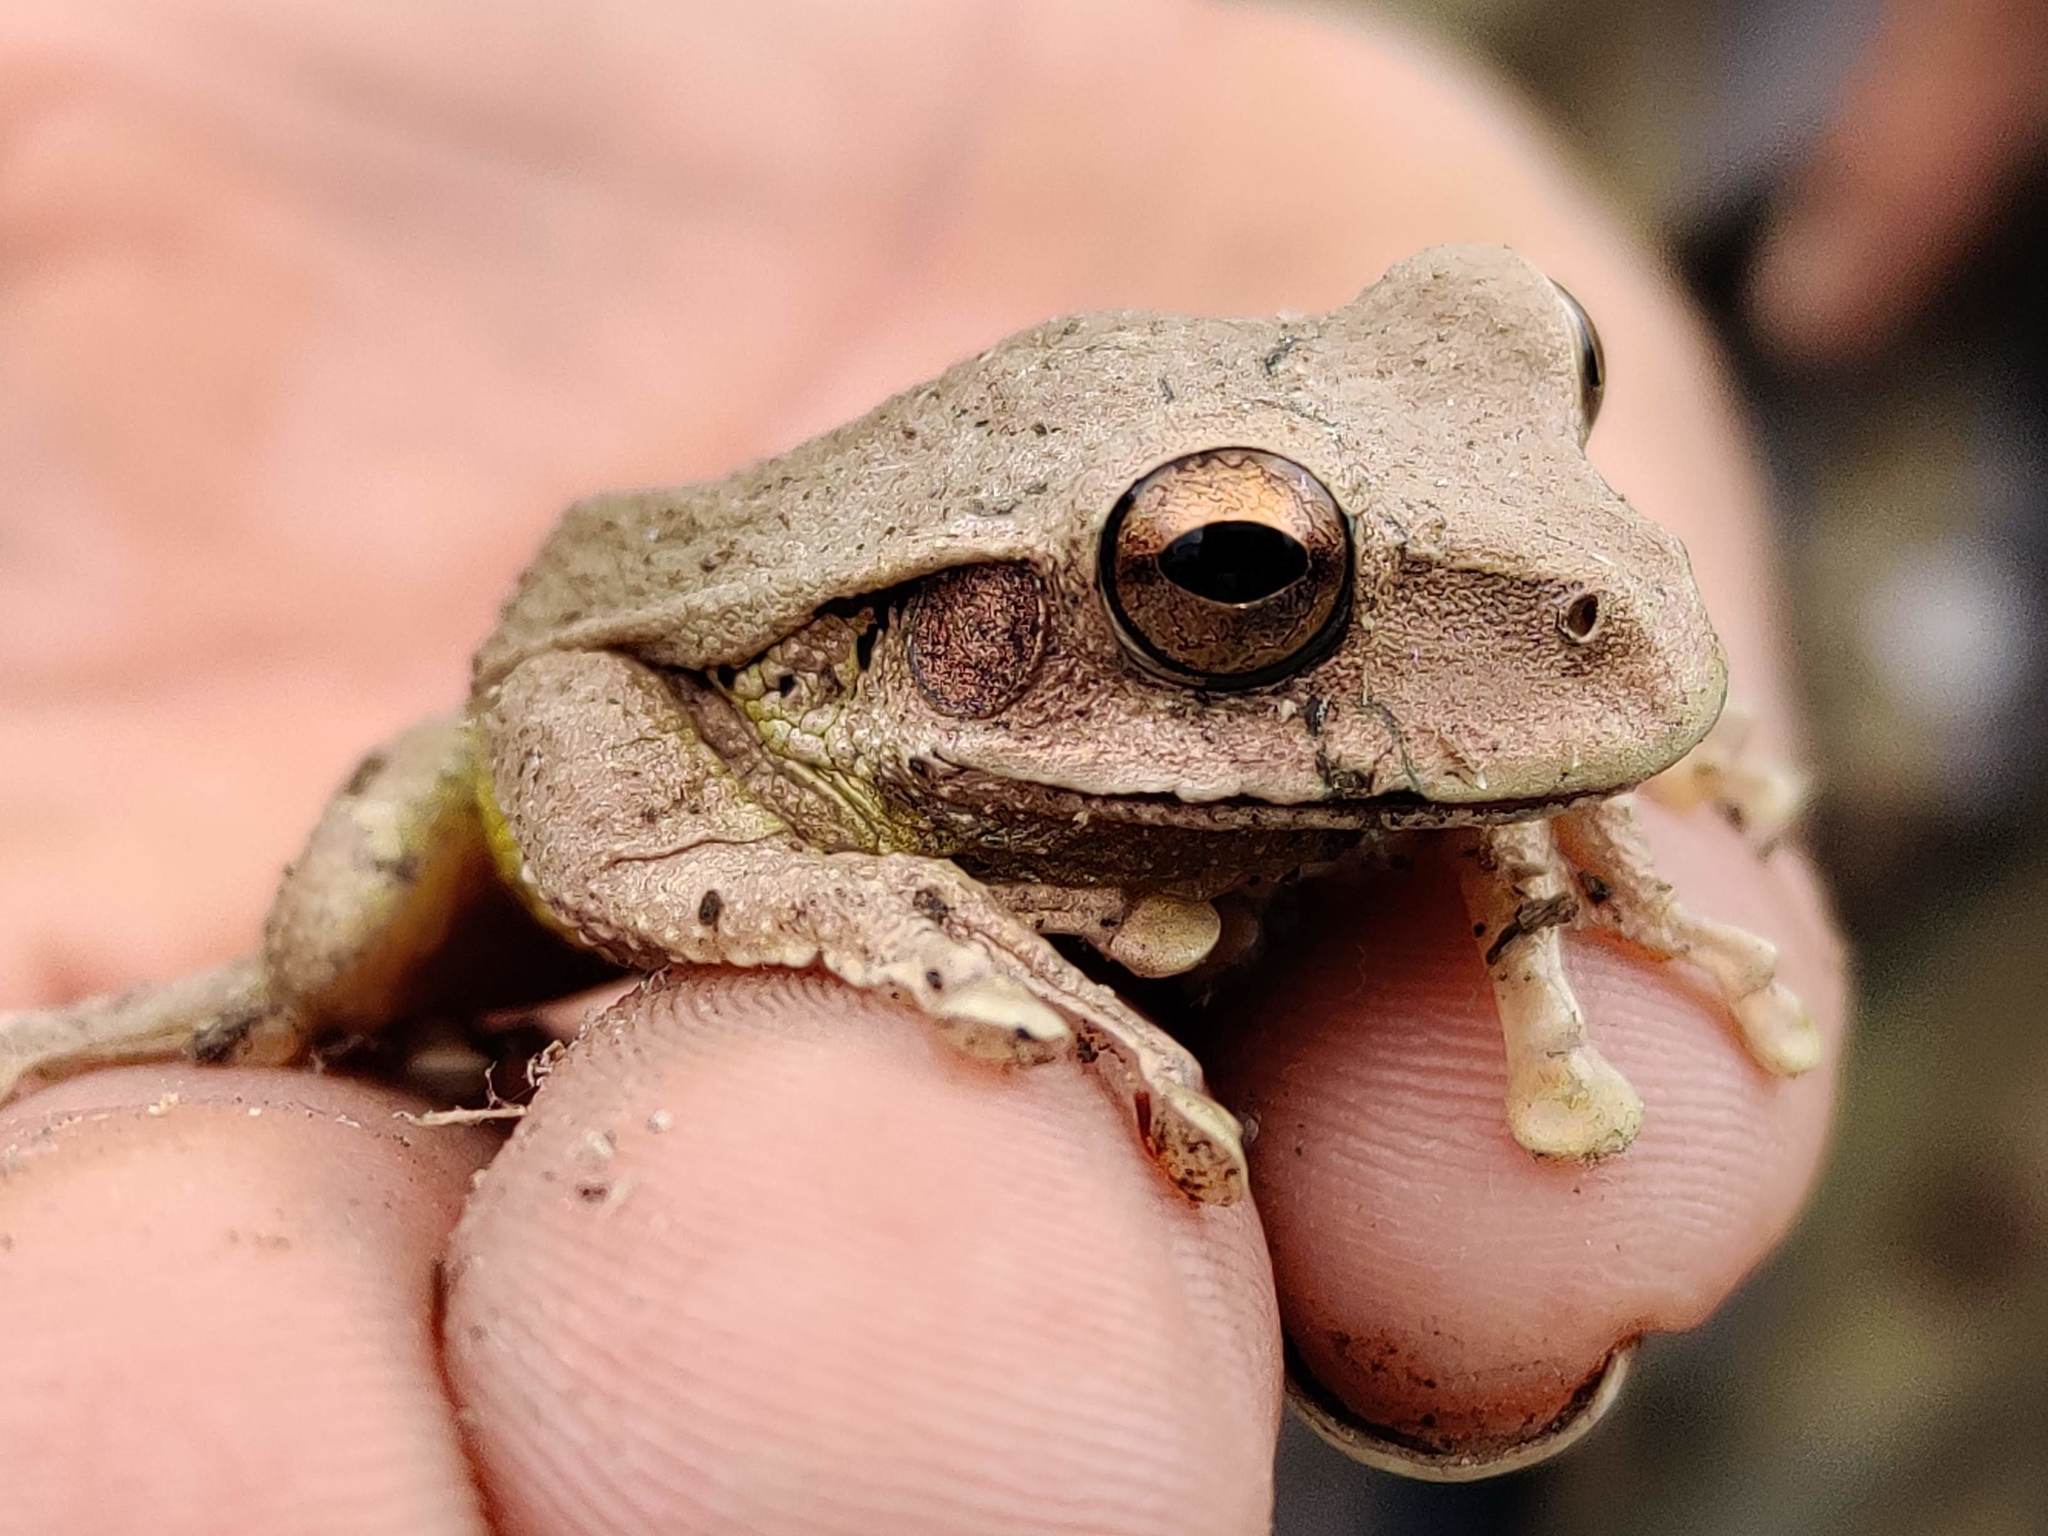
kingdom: Animalia
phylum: Chordata
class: Amphibia
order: Anura
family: Hylidae
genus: Smilisca
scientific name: Smilisca baudinii
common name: Mexican smilisca
